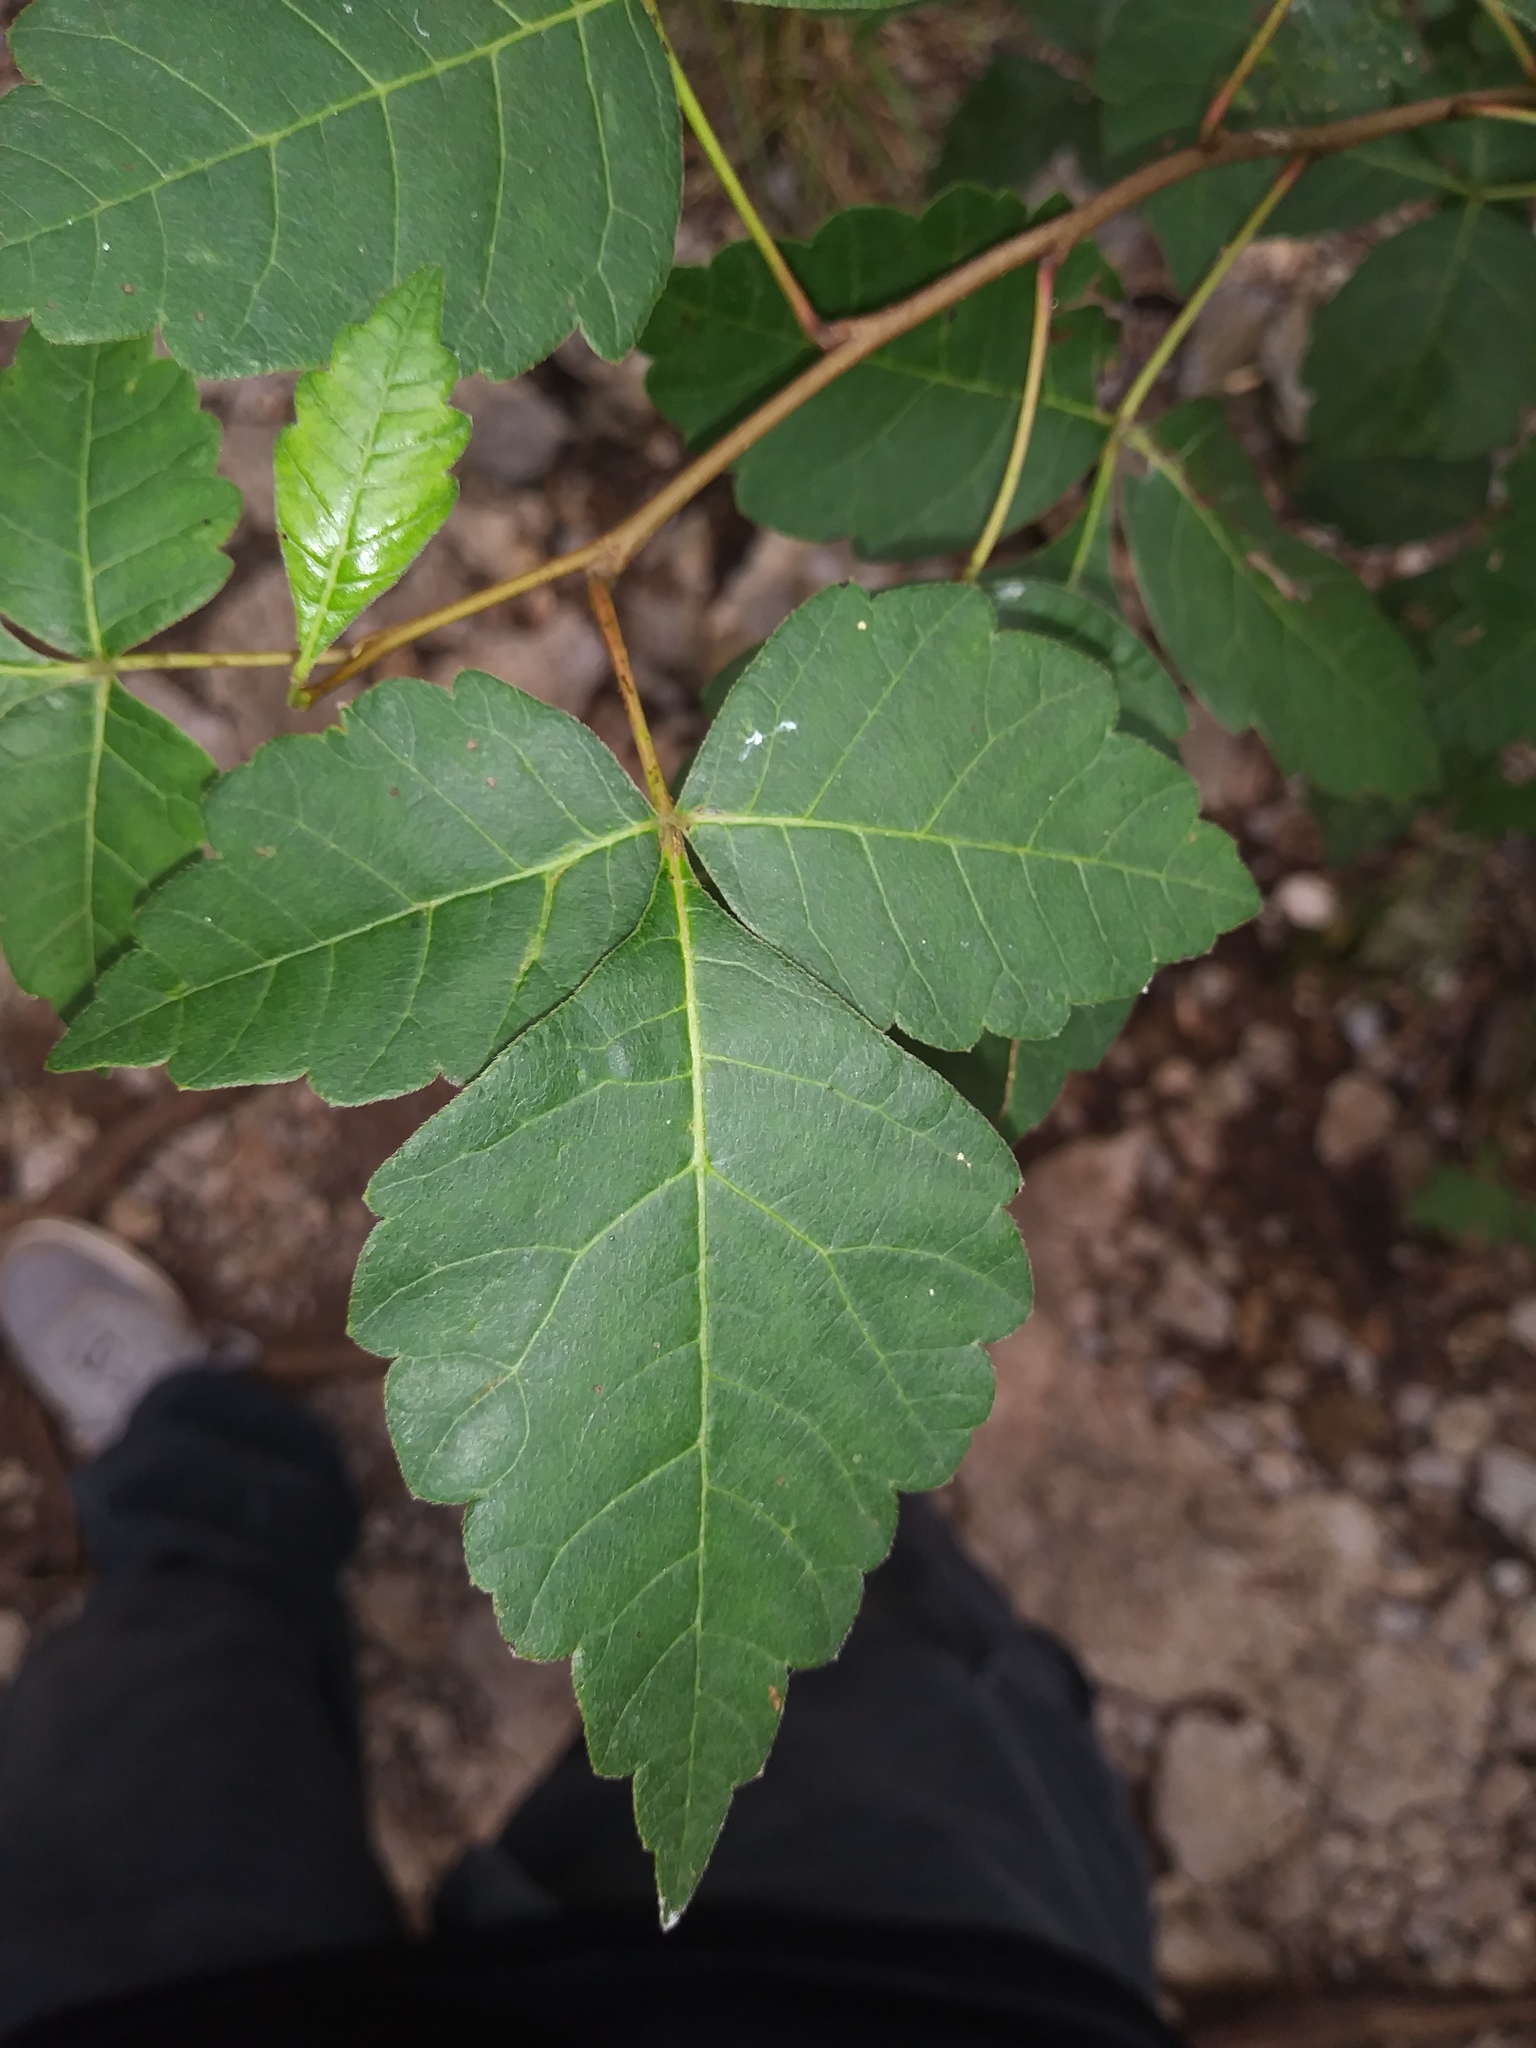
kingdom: Plantae
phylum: Tracheophyta
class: Magnoliopsida
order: Sapindales
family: Anacardiaceae
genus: Rhus
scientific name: Rhus aromatica
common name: Aromatic sumac
